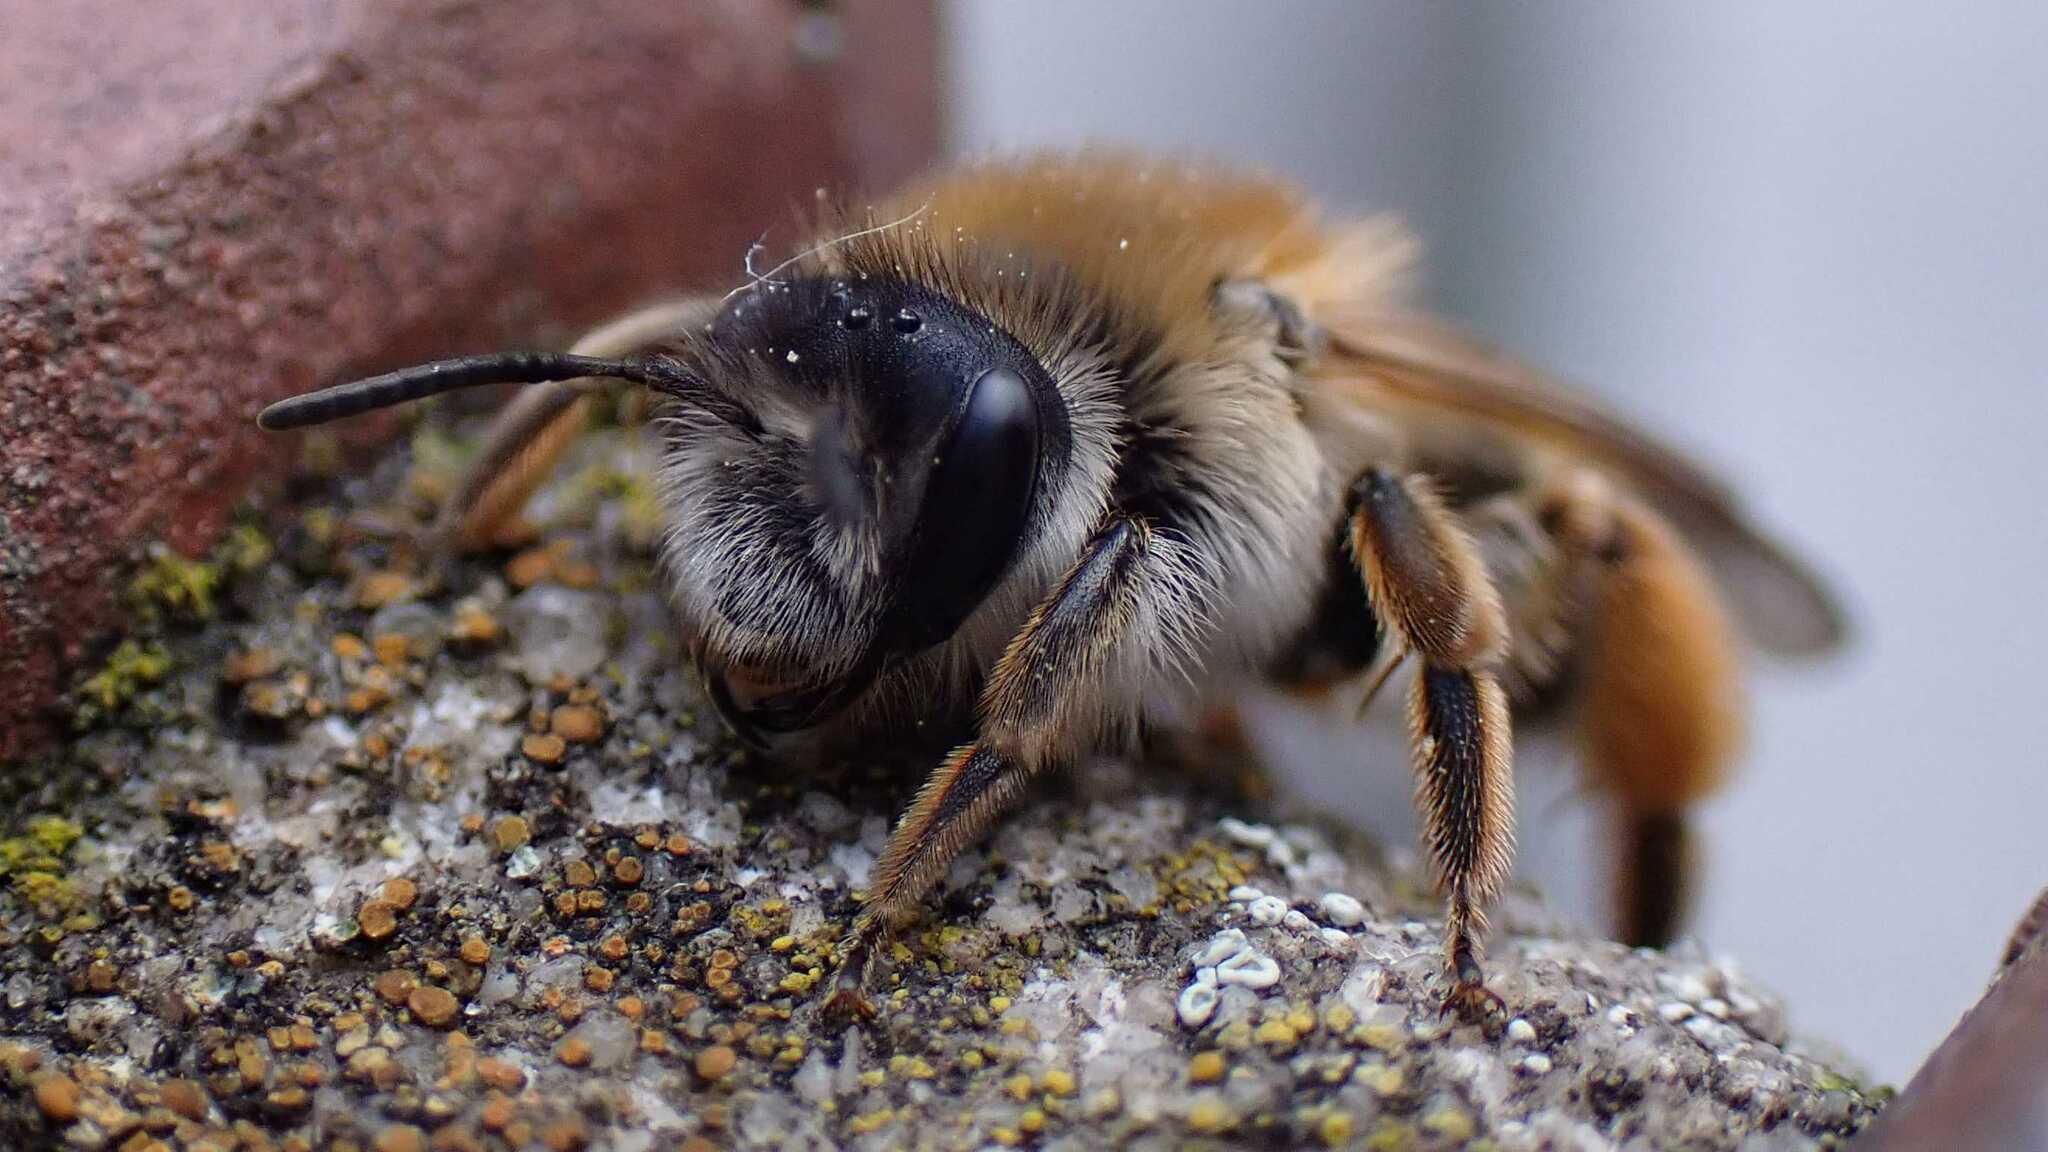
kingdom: Animalia
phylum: Arthropoda
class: Insecta
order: Hymenoptera
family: Andrenidae
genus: Andrena
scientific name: Andrena gravida
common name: White-bellied mining bee
